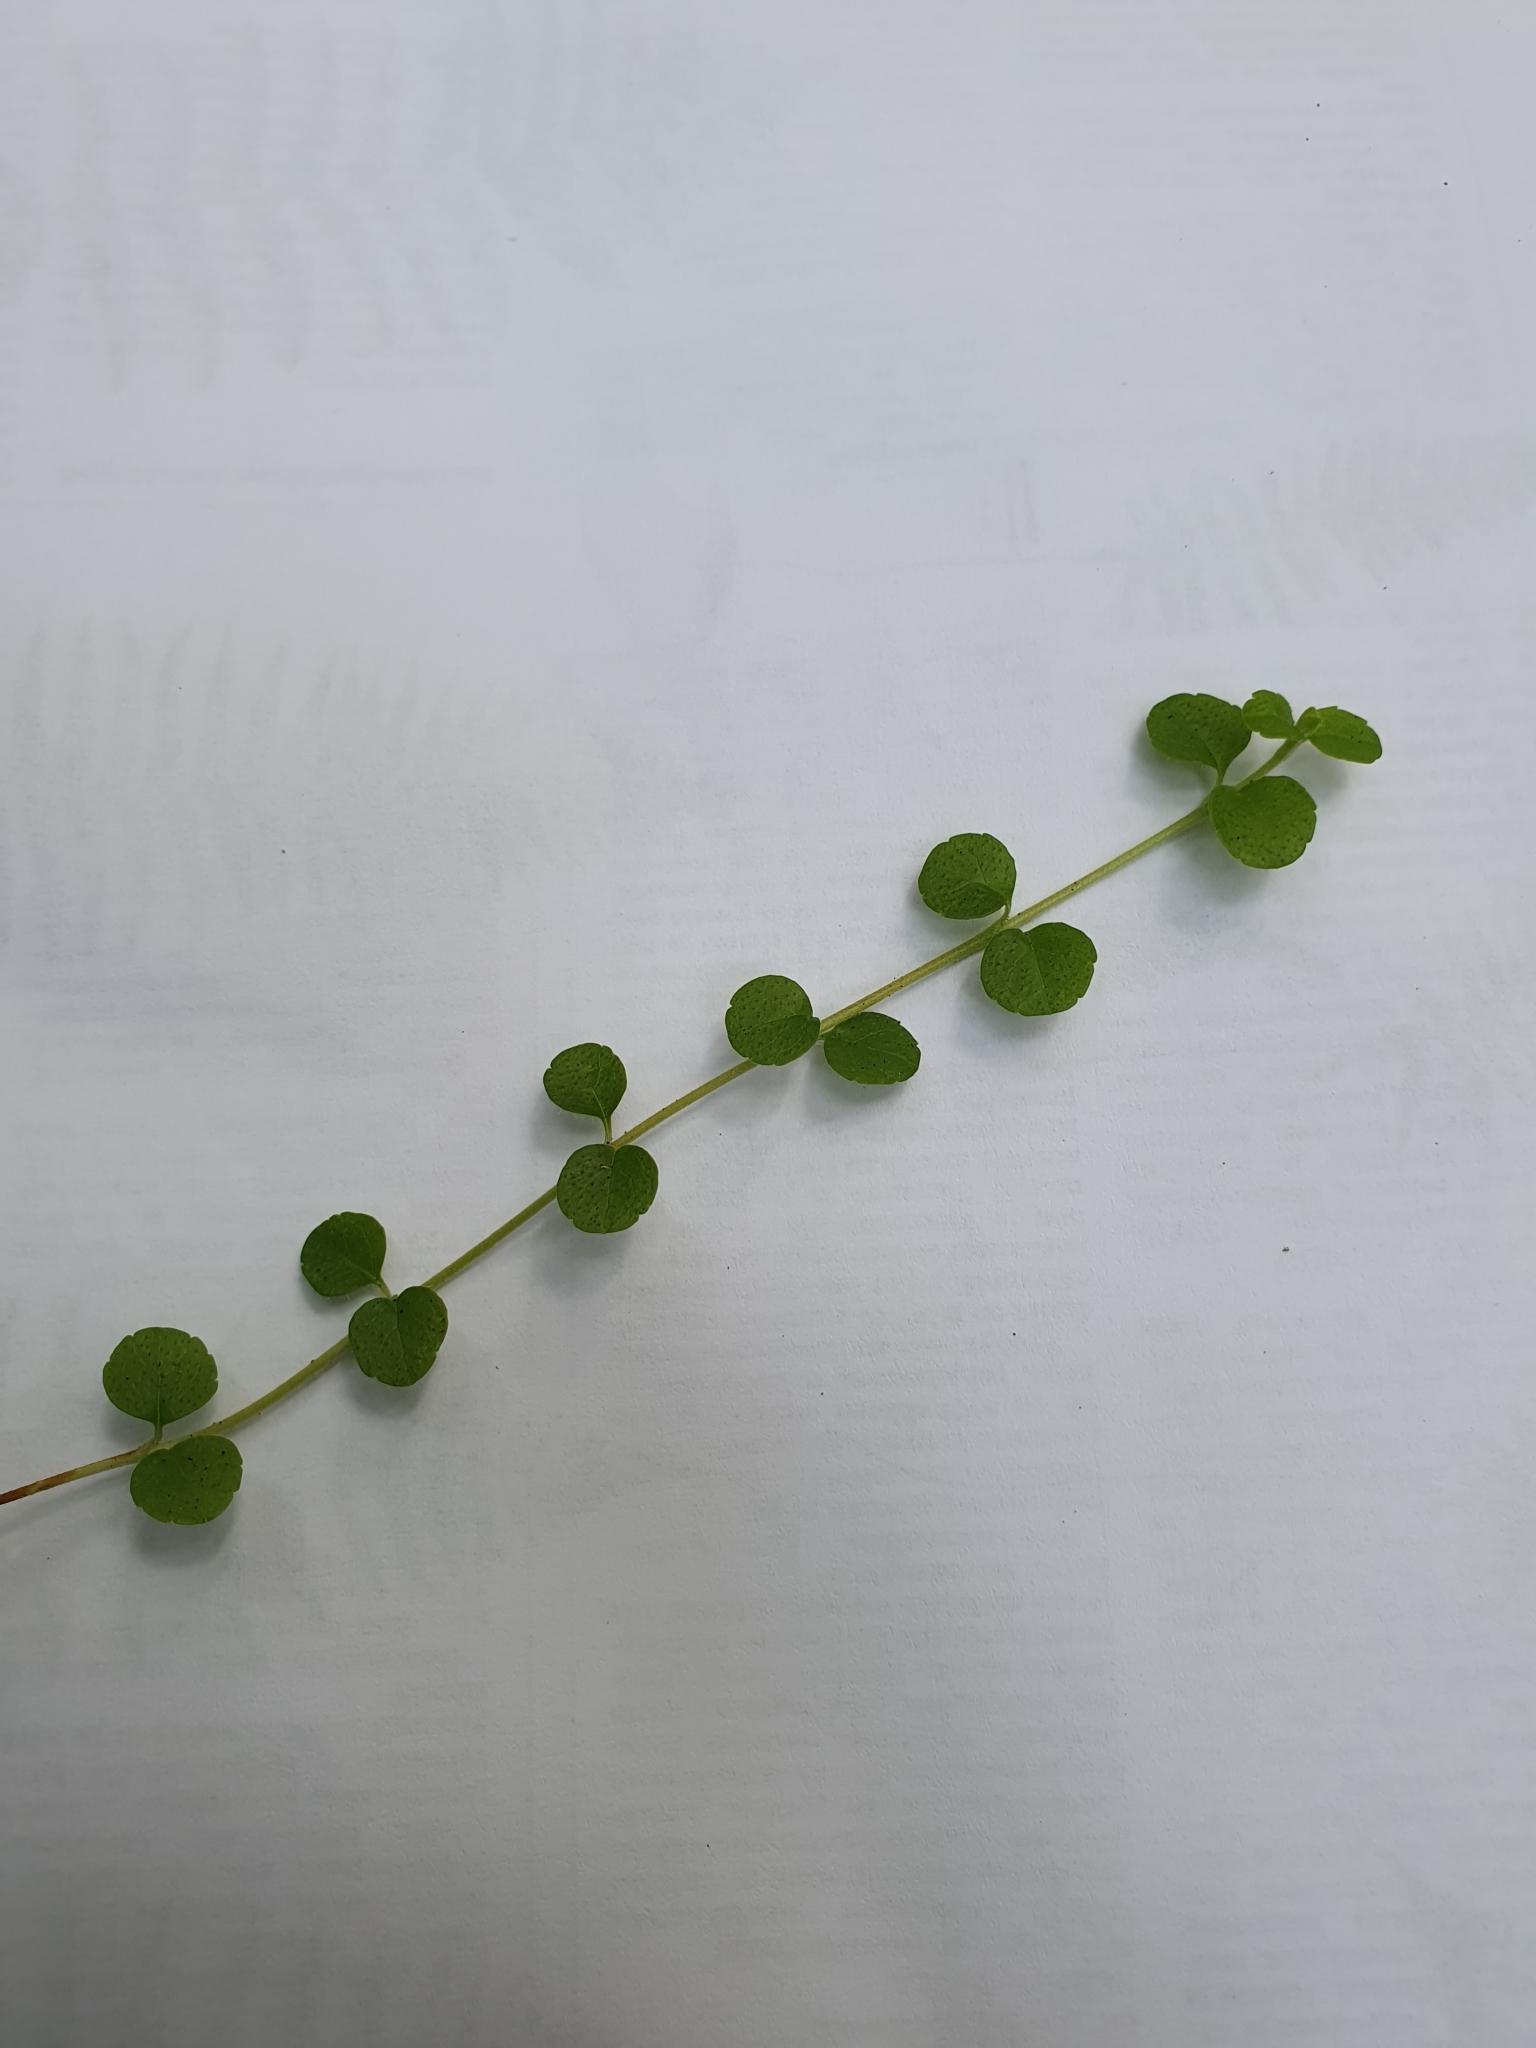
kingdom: Plantae
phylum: Tracheophyta
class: Magnoliopsida
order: Dipsacales
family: Caprifoliaceae
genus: Linnaea
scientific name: Linnaea borealis
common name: Twinflower
